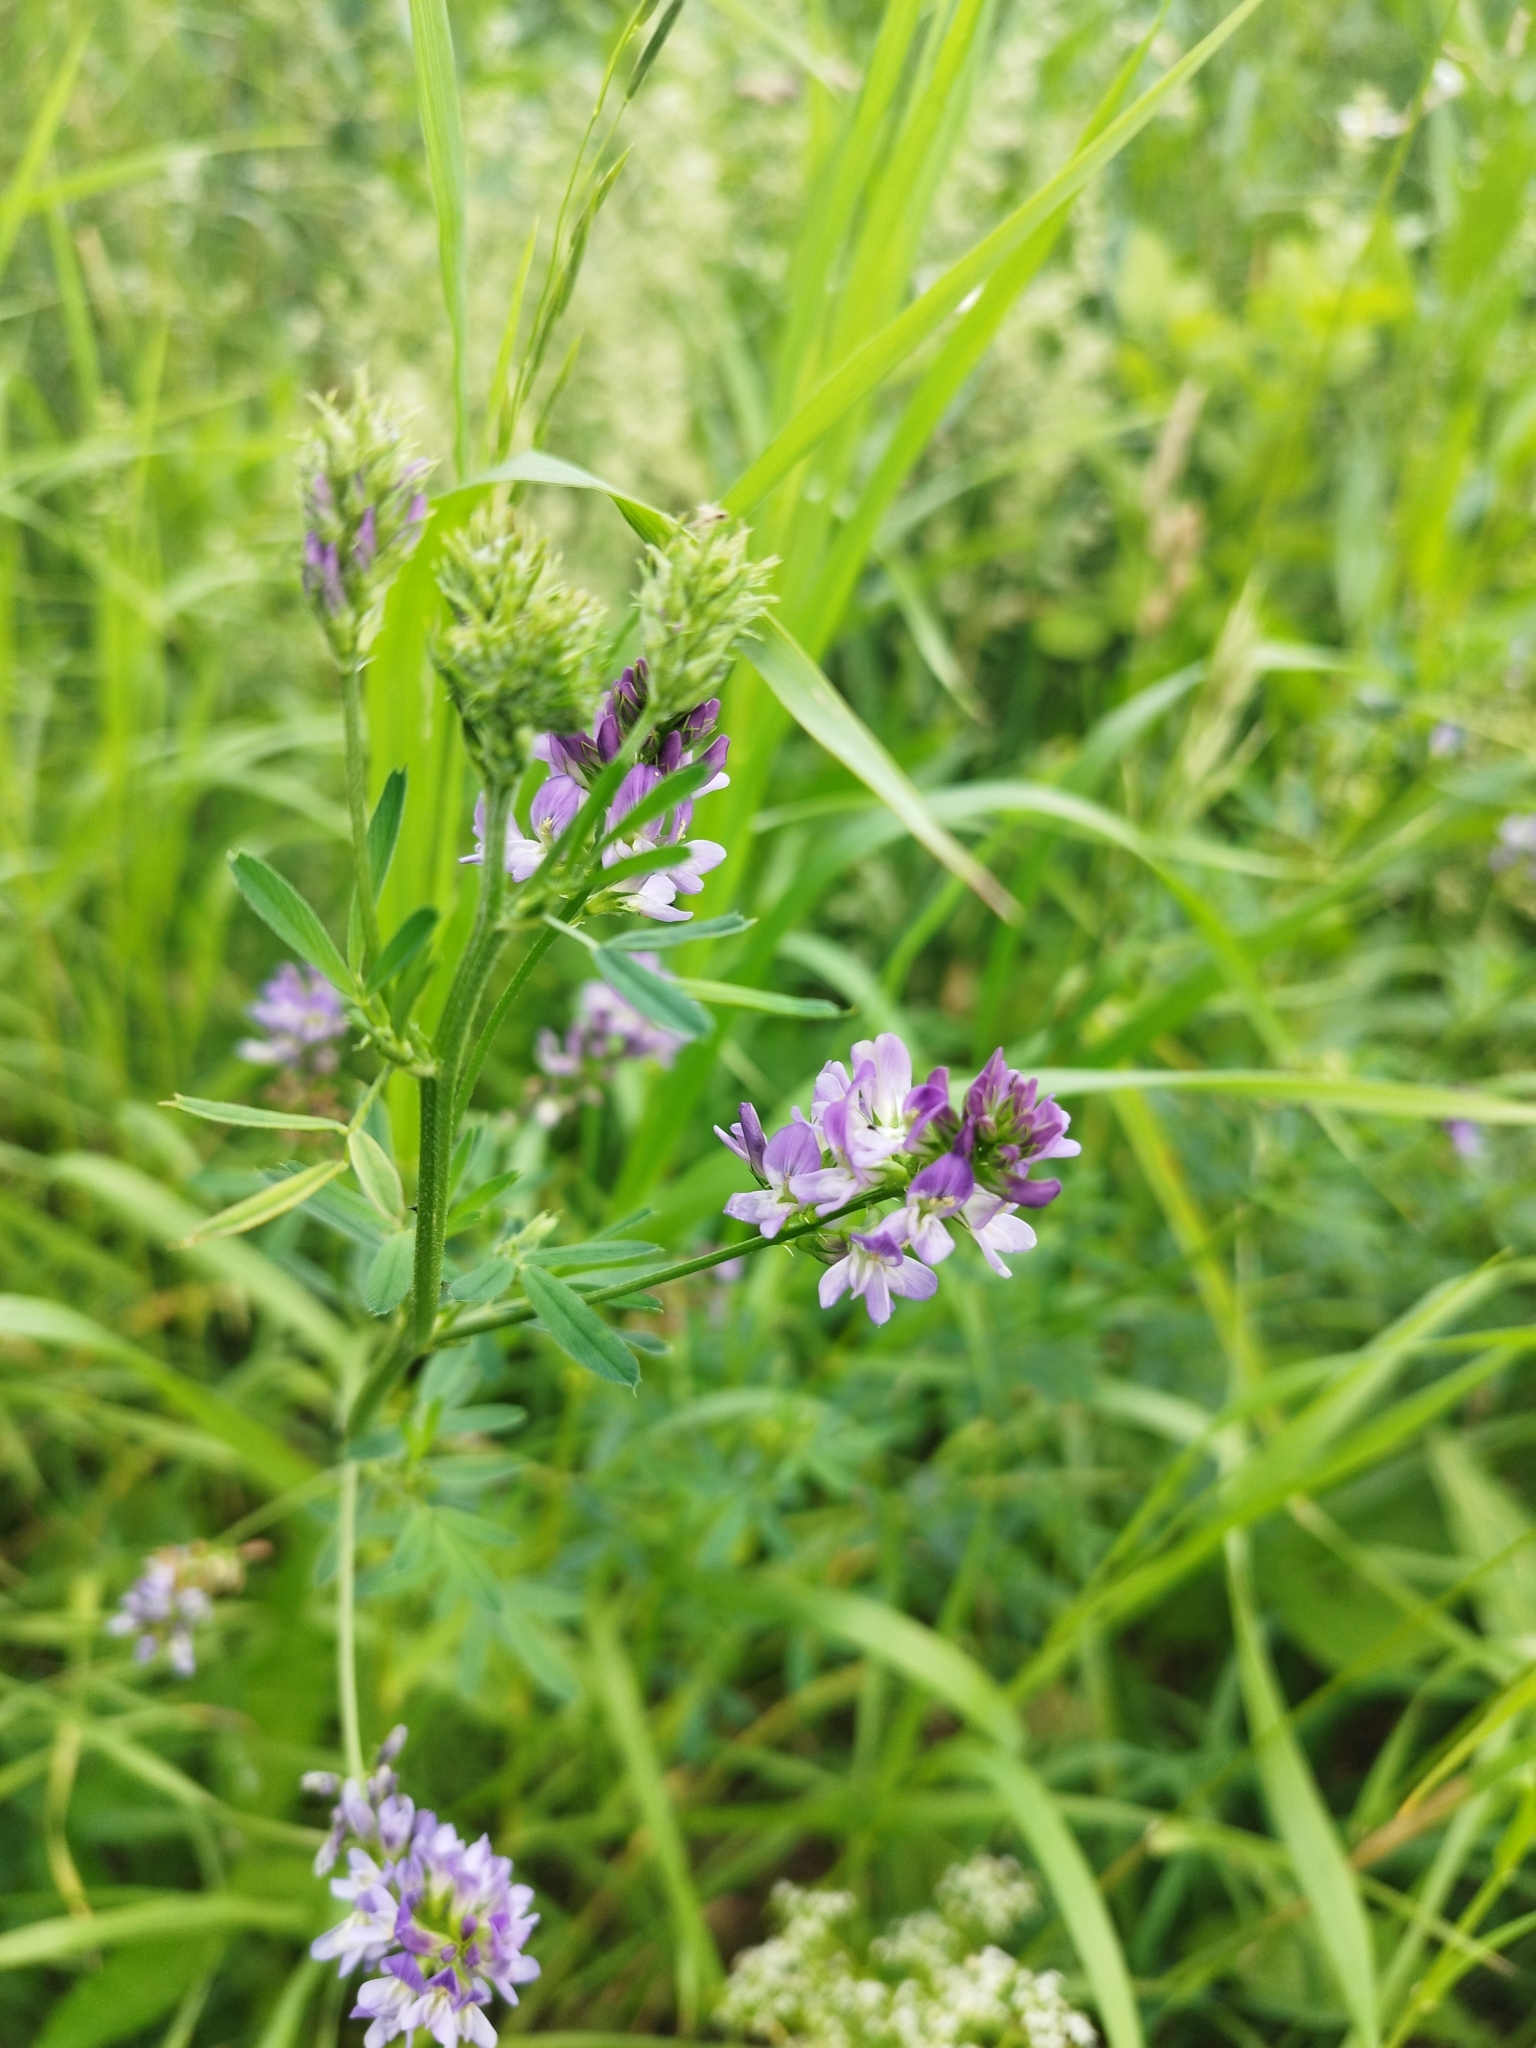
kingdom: Plantae
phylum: Tracheophyta
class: Magnoliopsida
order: Fabales
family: Fabaceae
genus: Medicago
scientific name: Medicago varia
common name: Sand lucerne
